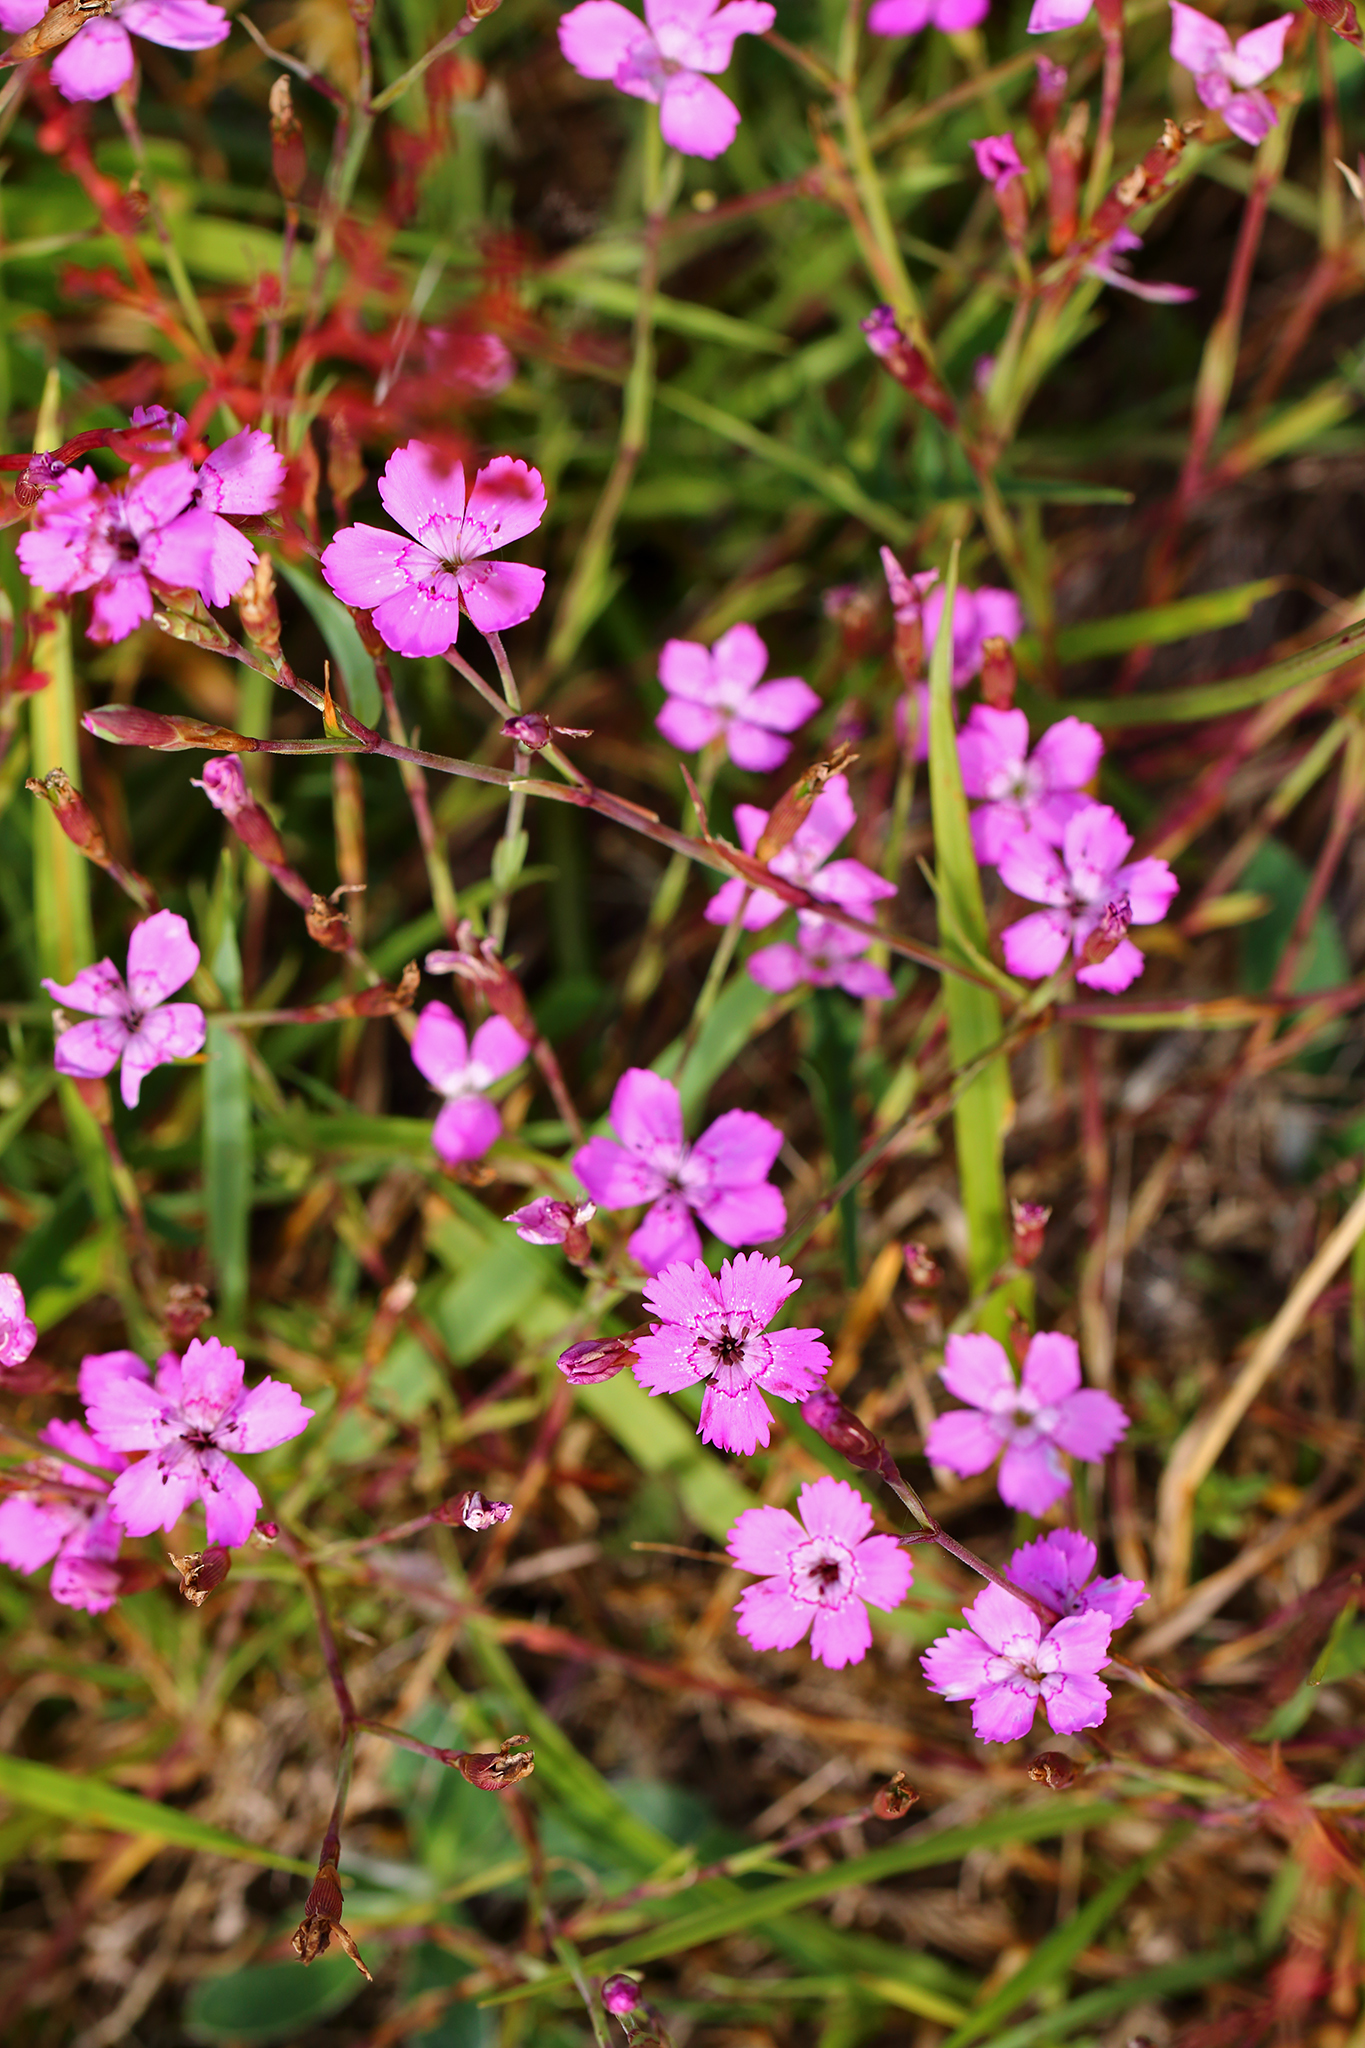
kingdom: Plantae
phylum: Tracheophyta
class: Magnoliopsida
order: Caryophyllales
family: Caryophyllaceae
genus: Dianthus
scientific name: Dianthus deltoides
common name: Maiden pink
